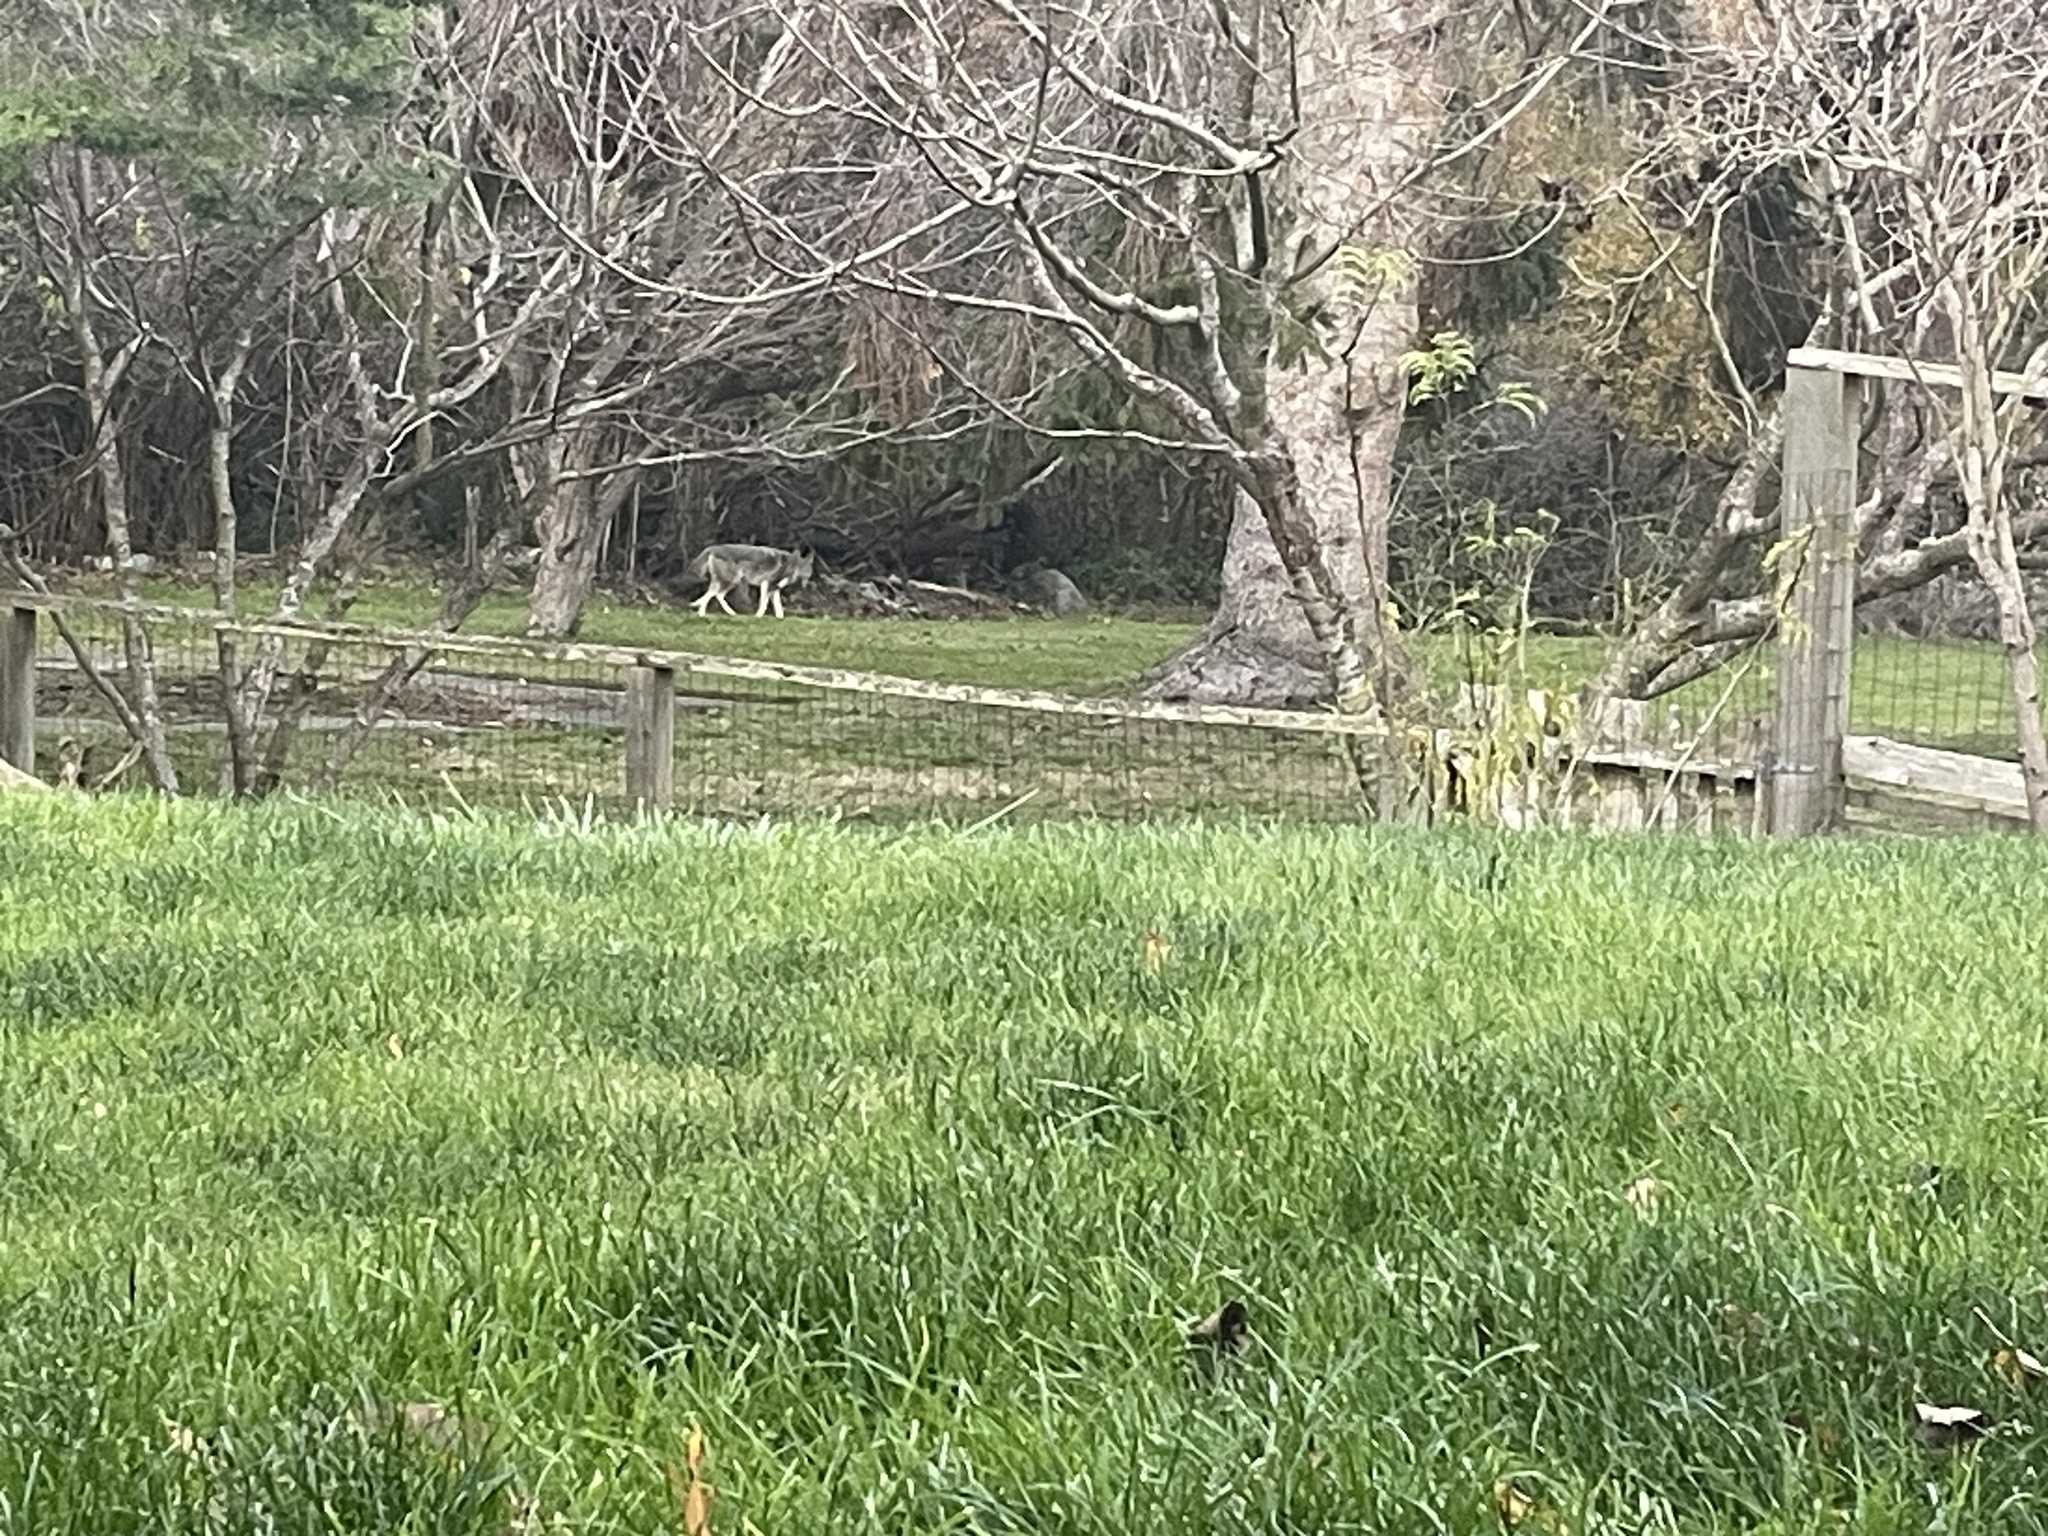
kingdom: Animalia
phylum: Chordata
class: Mammalia
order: Carnivora
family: Canidae
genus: Canis
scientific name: Canis latrans
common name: Coyote
